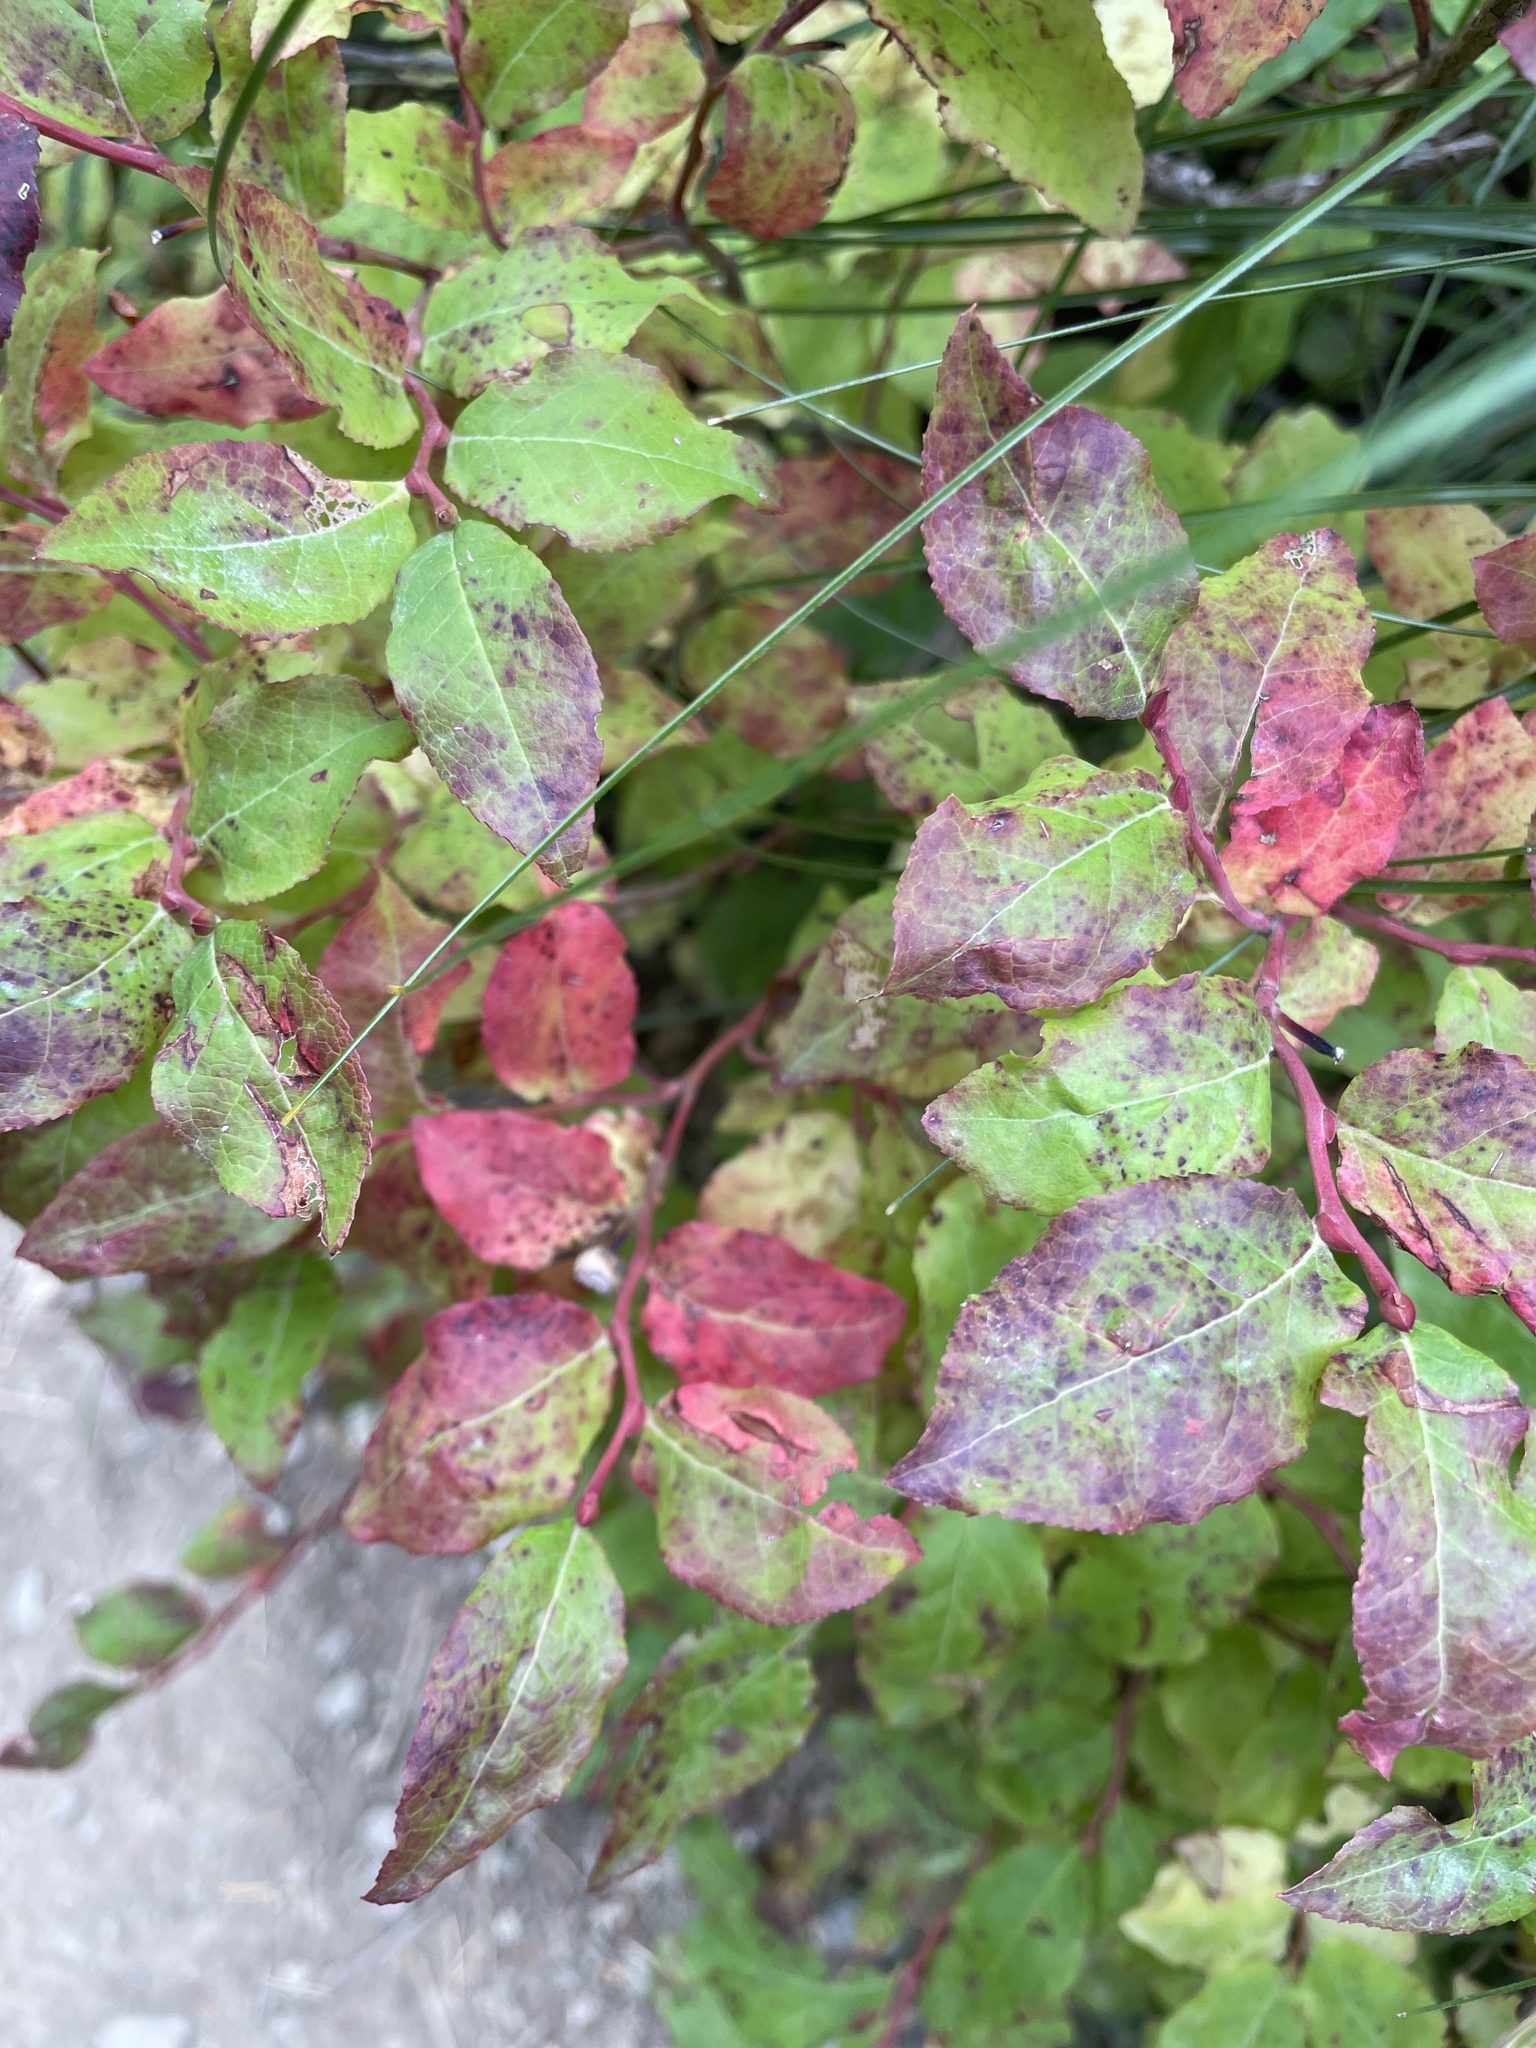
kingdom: Plantae
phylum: Tracheophyta
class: Magnoliopsida
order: Ericales
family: Ericaceae
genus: Vaccinium
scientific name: Vaccinium membranaceum
